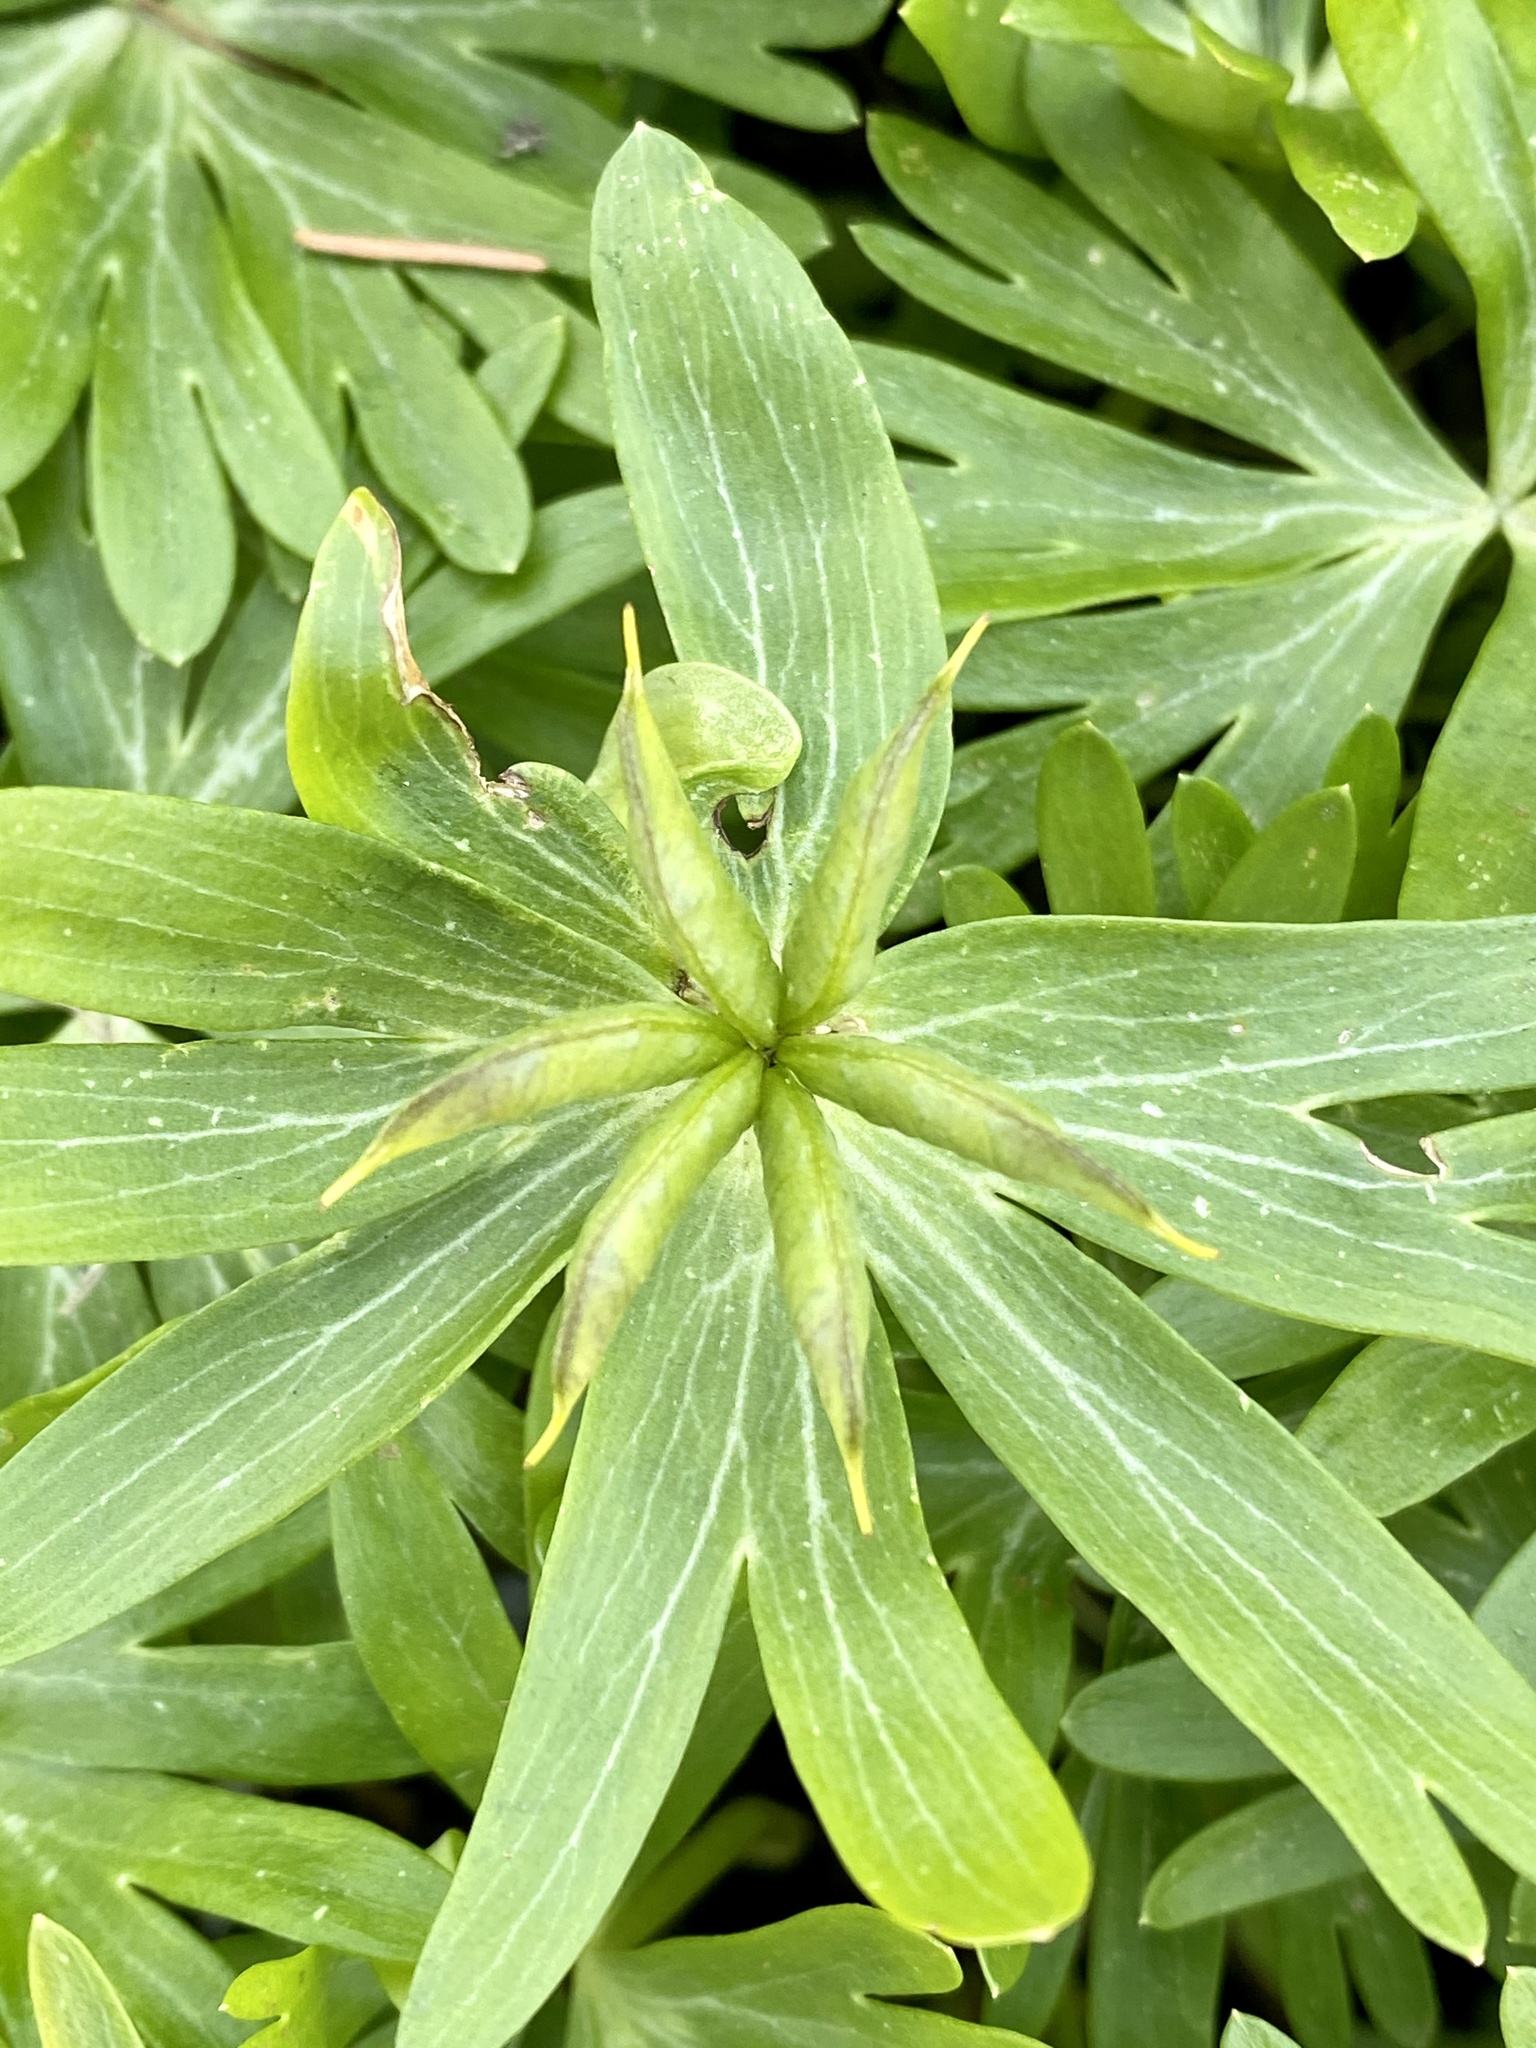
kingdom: Plantae
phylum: Tracheophyta
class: Magnoliopsida
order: Ranunculales
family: Ranunculaceae
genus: Eranthis
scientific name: Eranthis hyemalis
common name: Winter aconite
